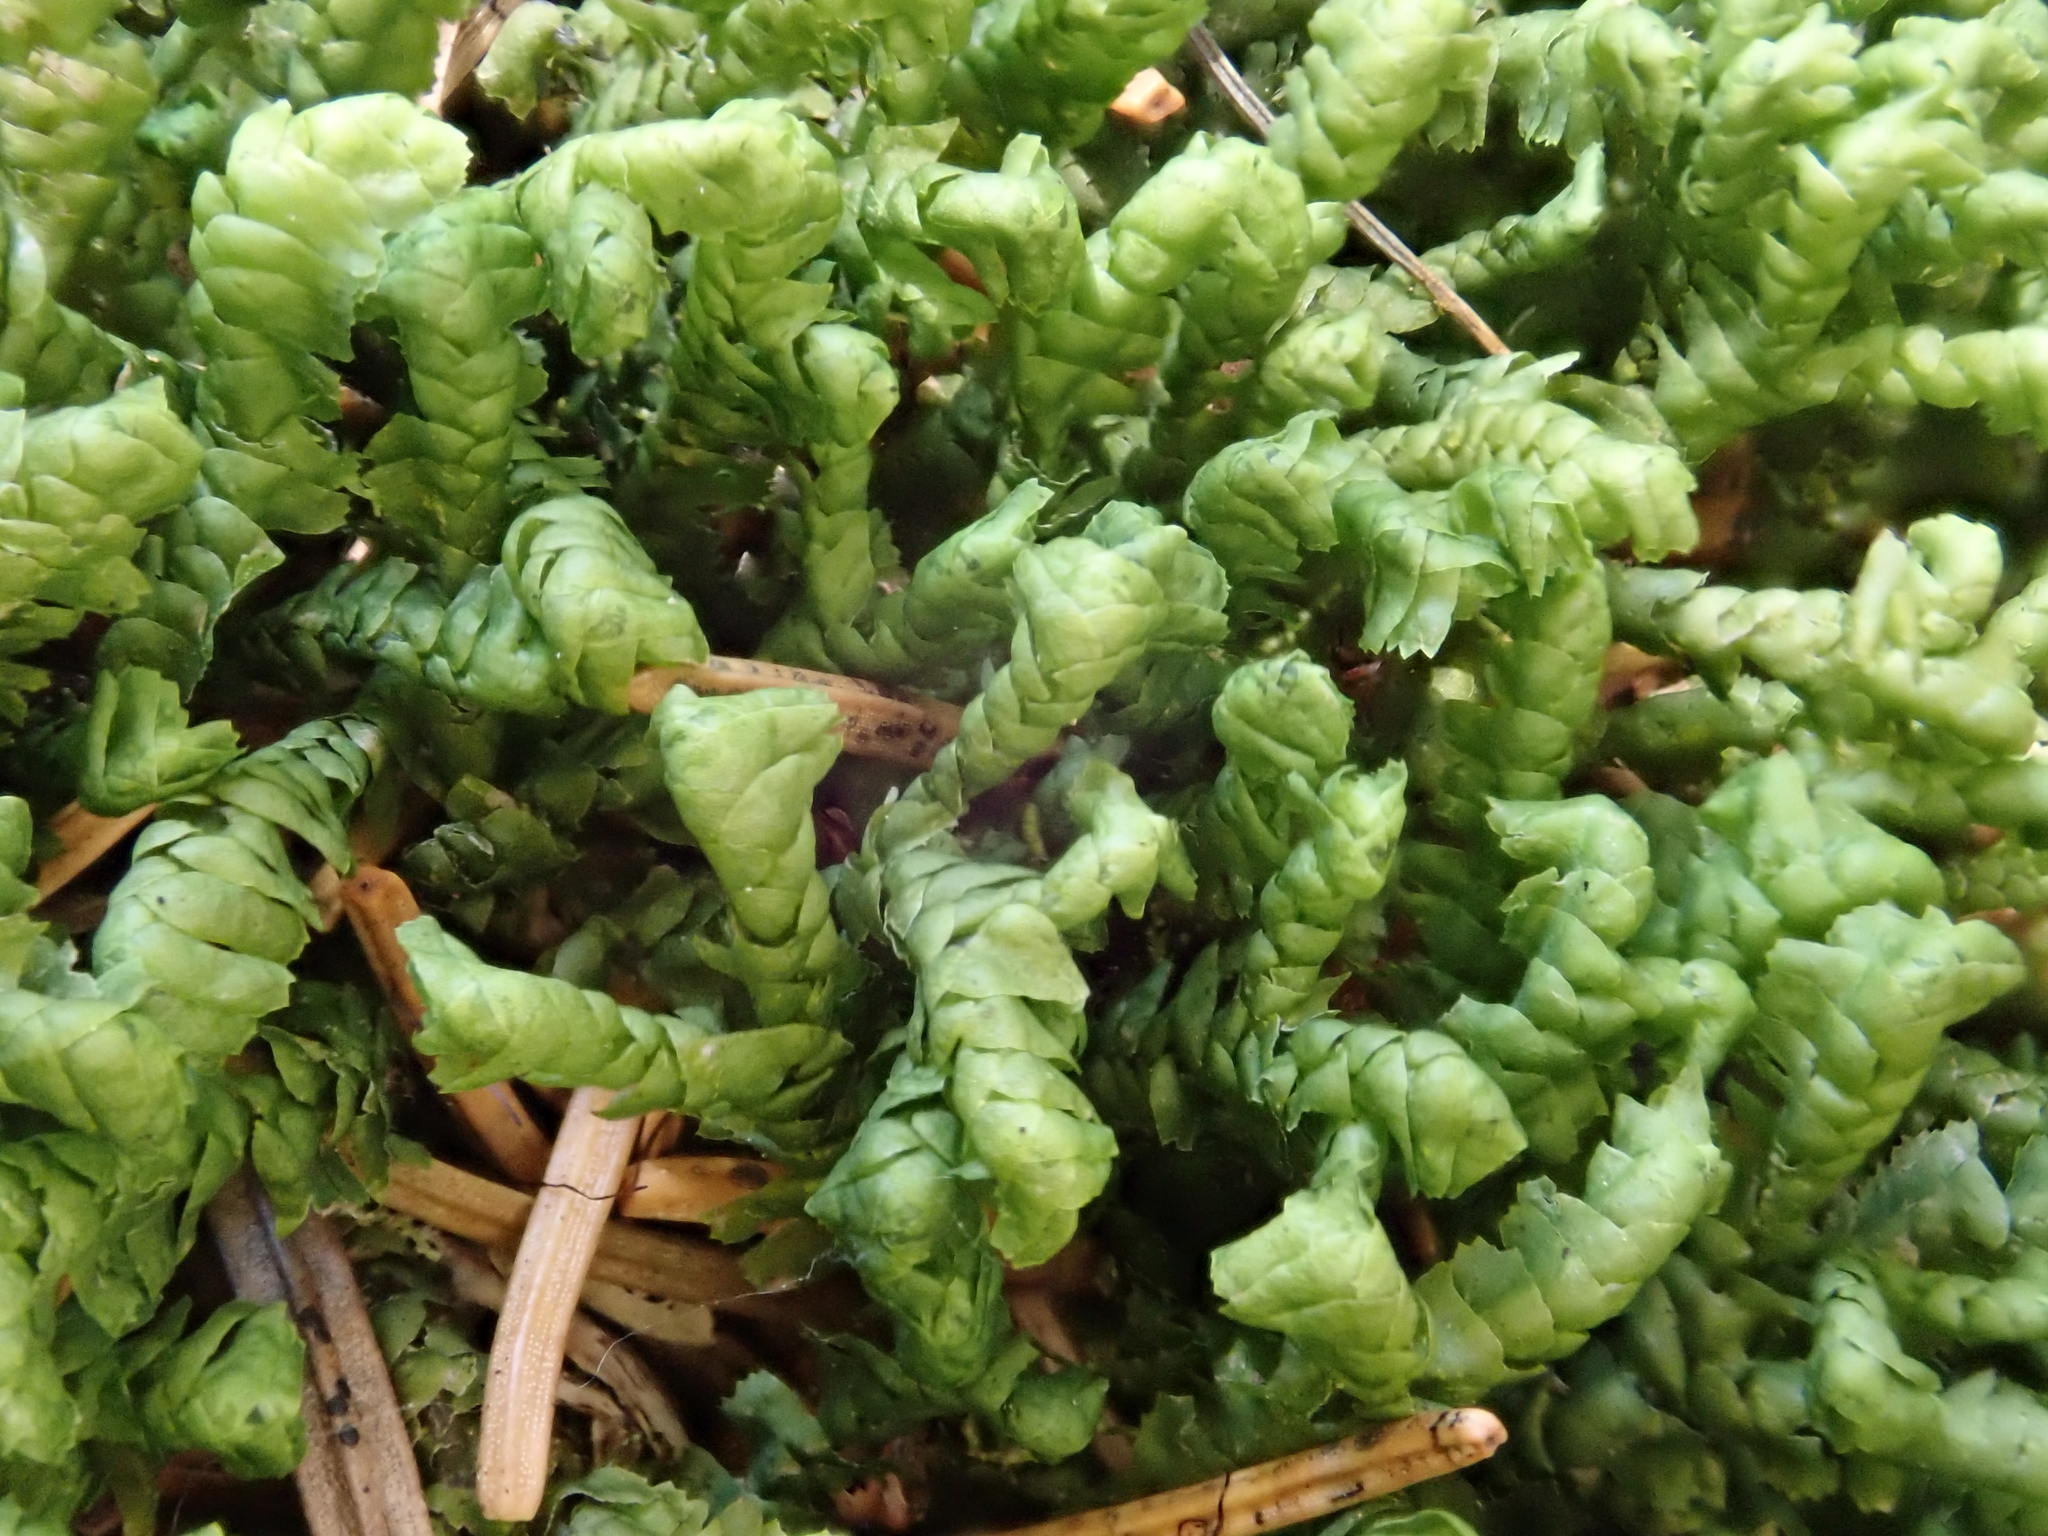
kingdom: Plantae
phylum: Marchantiophyta
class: Jungermanniopsida
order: Jungermanniales
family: Lepidoziaceae
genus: Bazzania
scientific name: Bazzania trilobata
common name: Three-lobed whipwort
